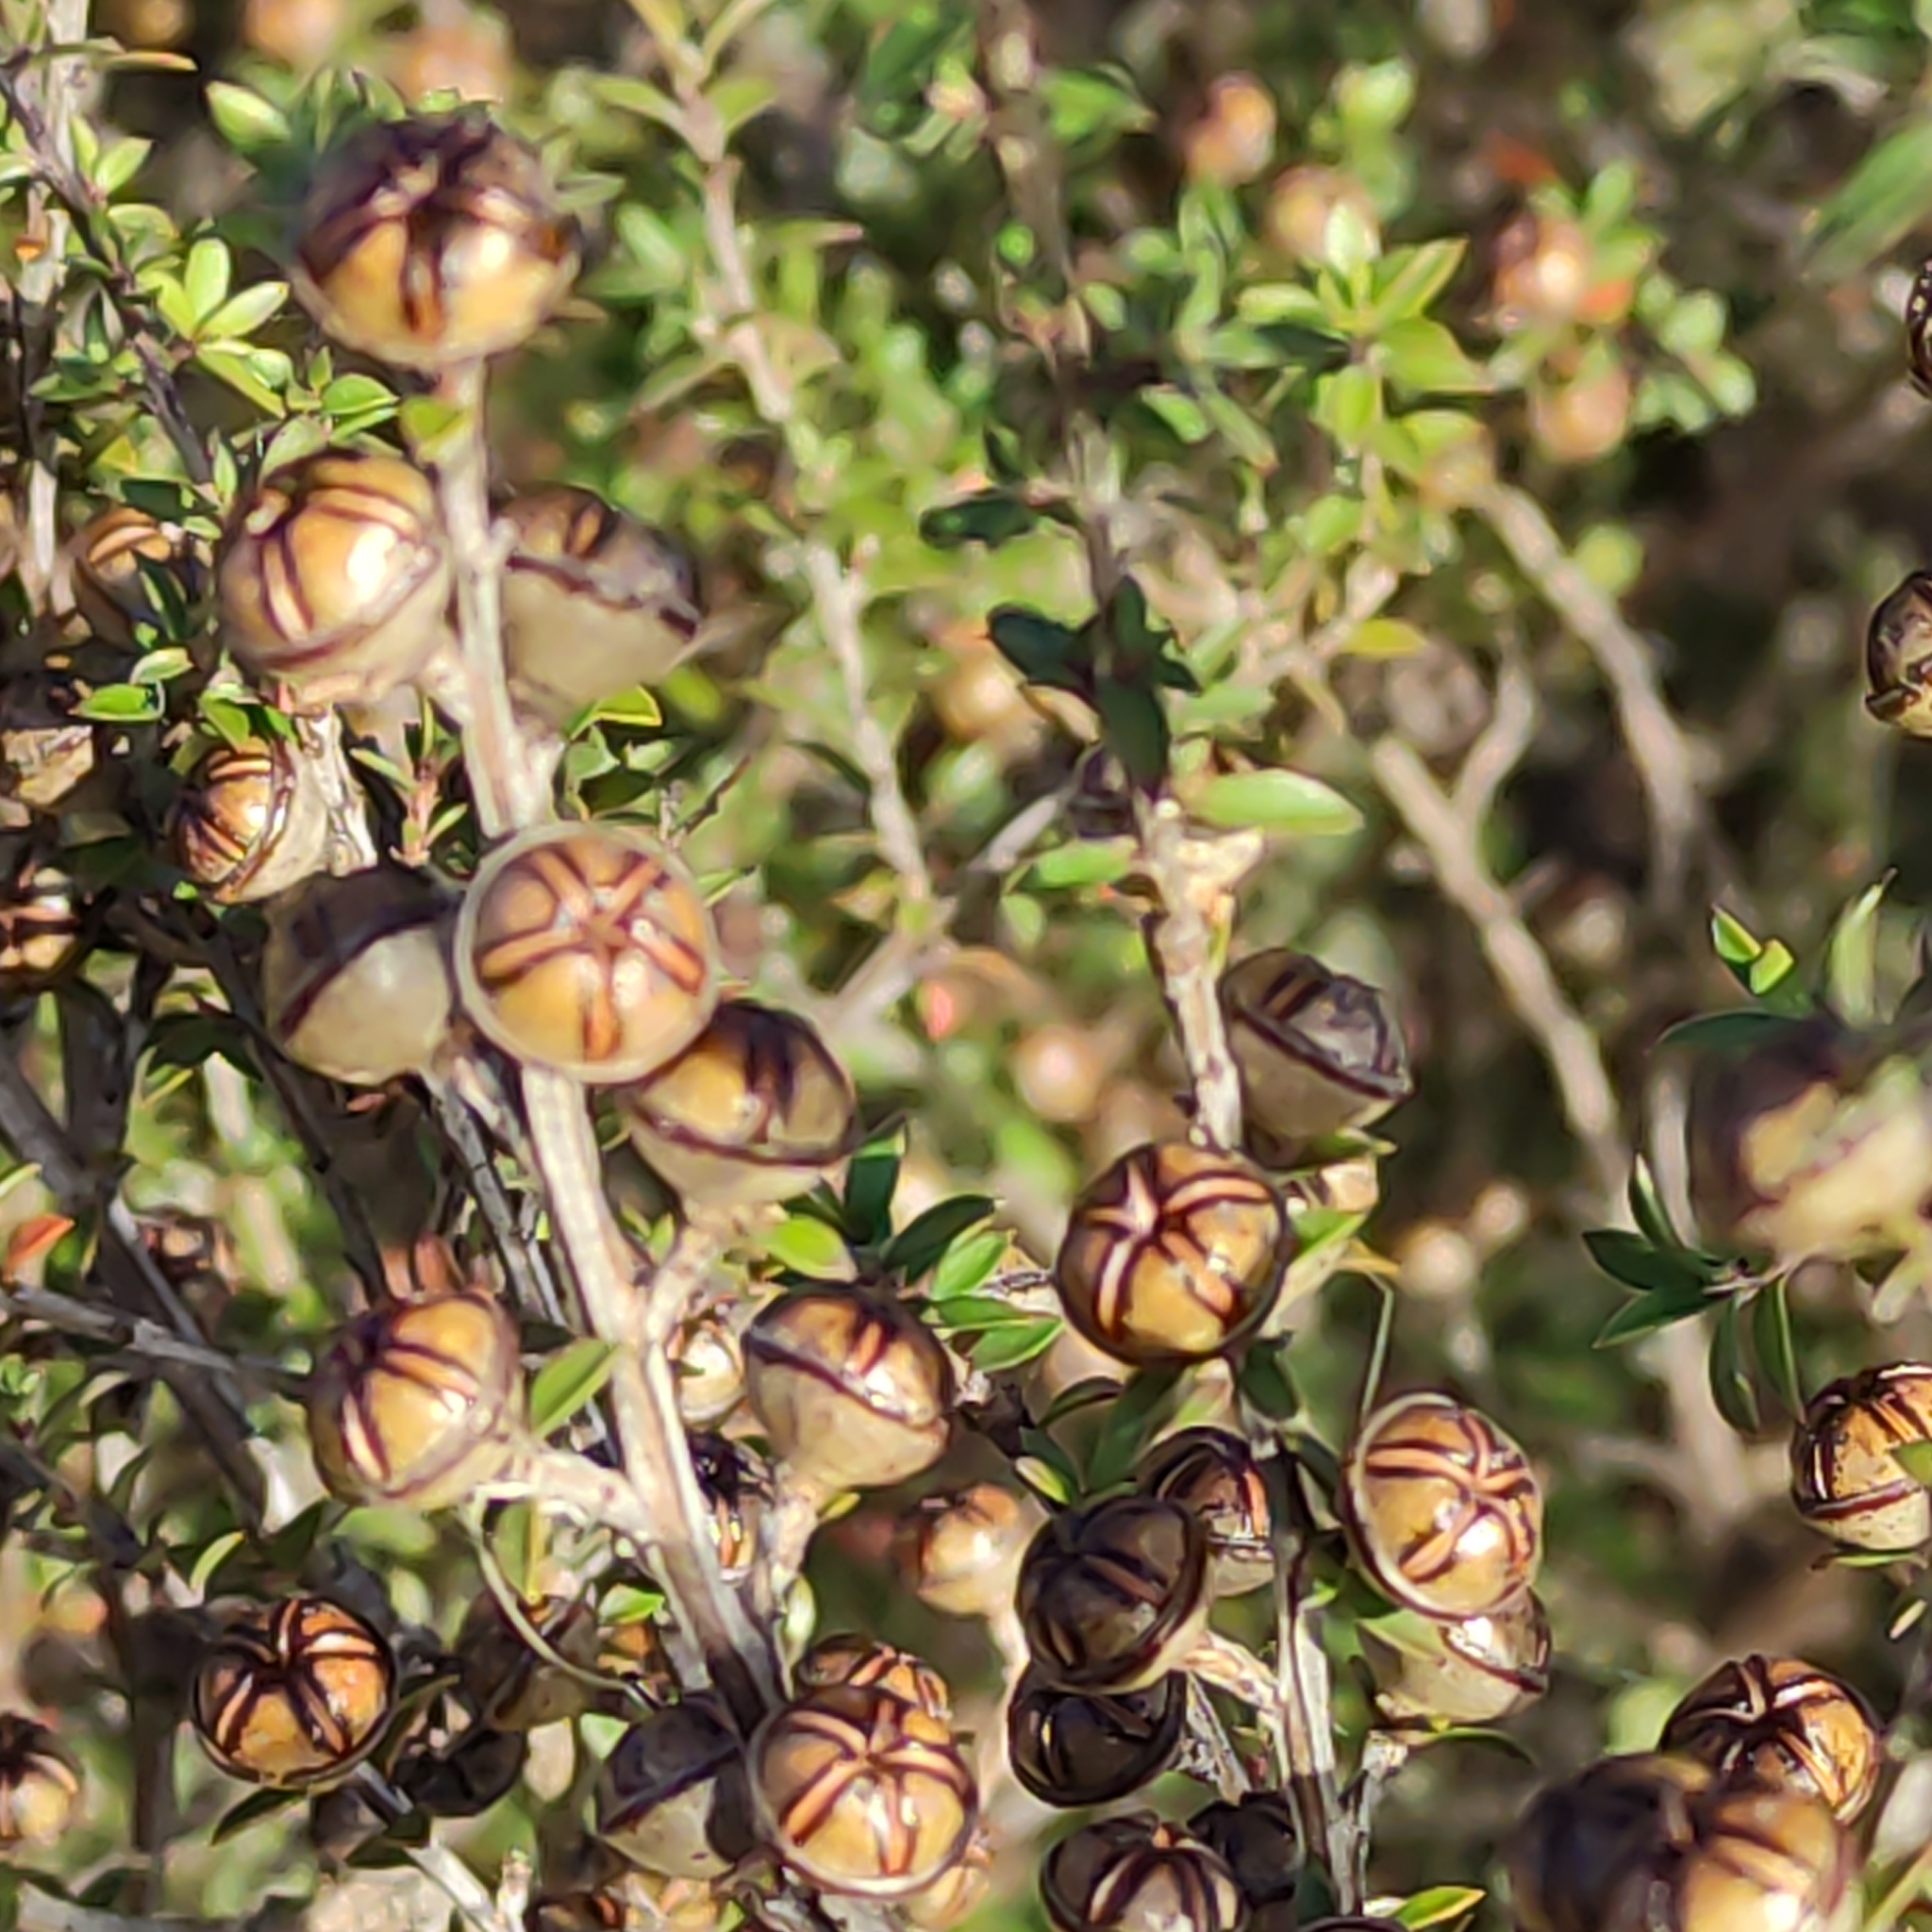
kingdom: Plantae
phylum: Tracheophyta
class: Magnoliopsida
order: Myrtales
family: Myrtaceae
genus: Leptospermum
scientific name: Leptospermum scoparium
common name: Broom tea-tree
